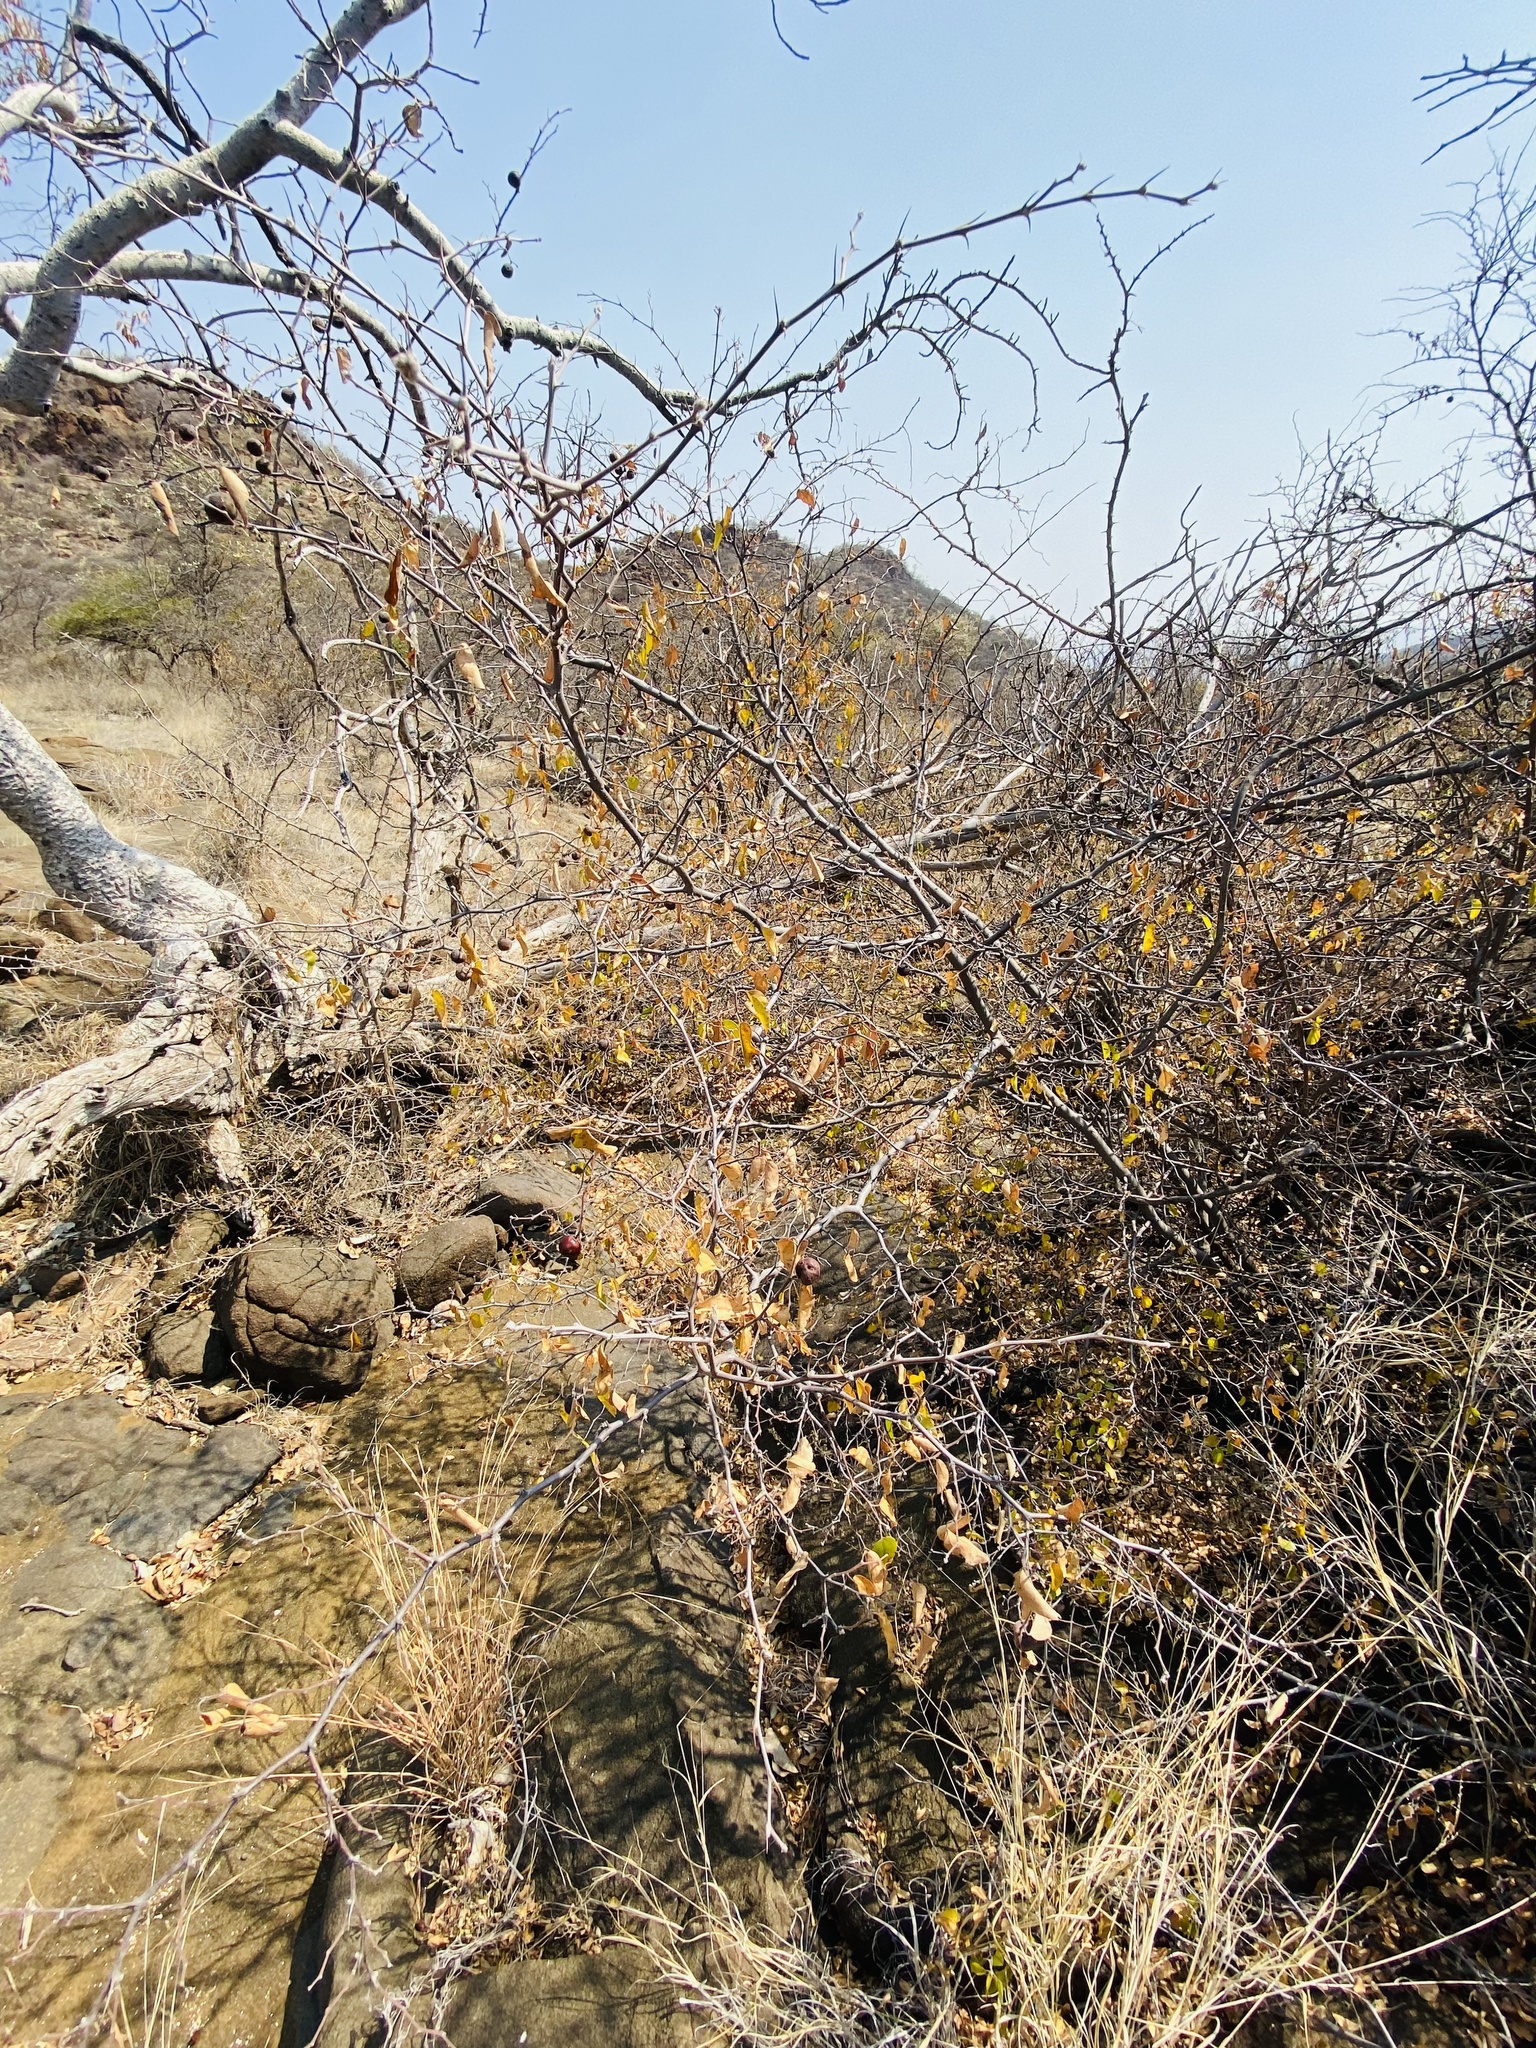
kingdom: Plantae
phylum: Tracheophyta
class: Magnoliopsida
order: Rosales
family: Rhamnaceae
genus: Ziziphus
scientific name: Ziziphus mucronata
